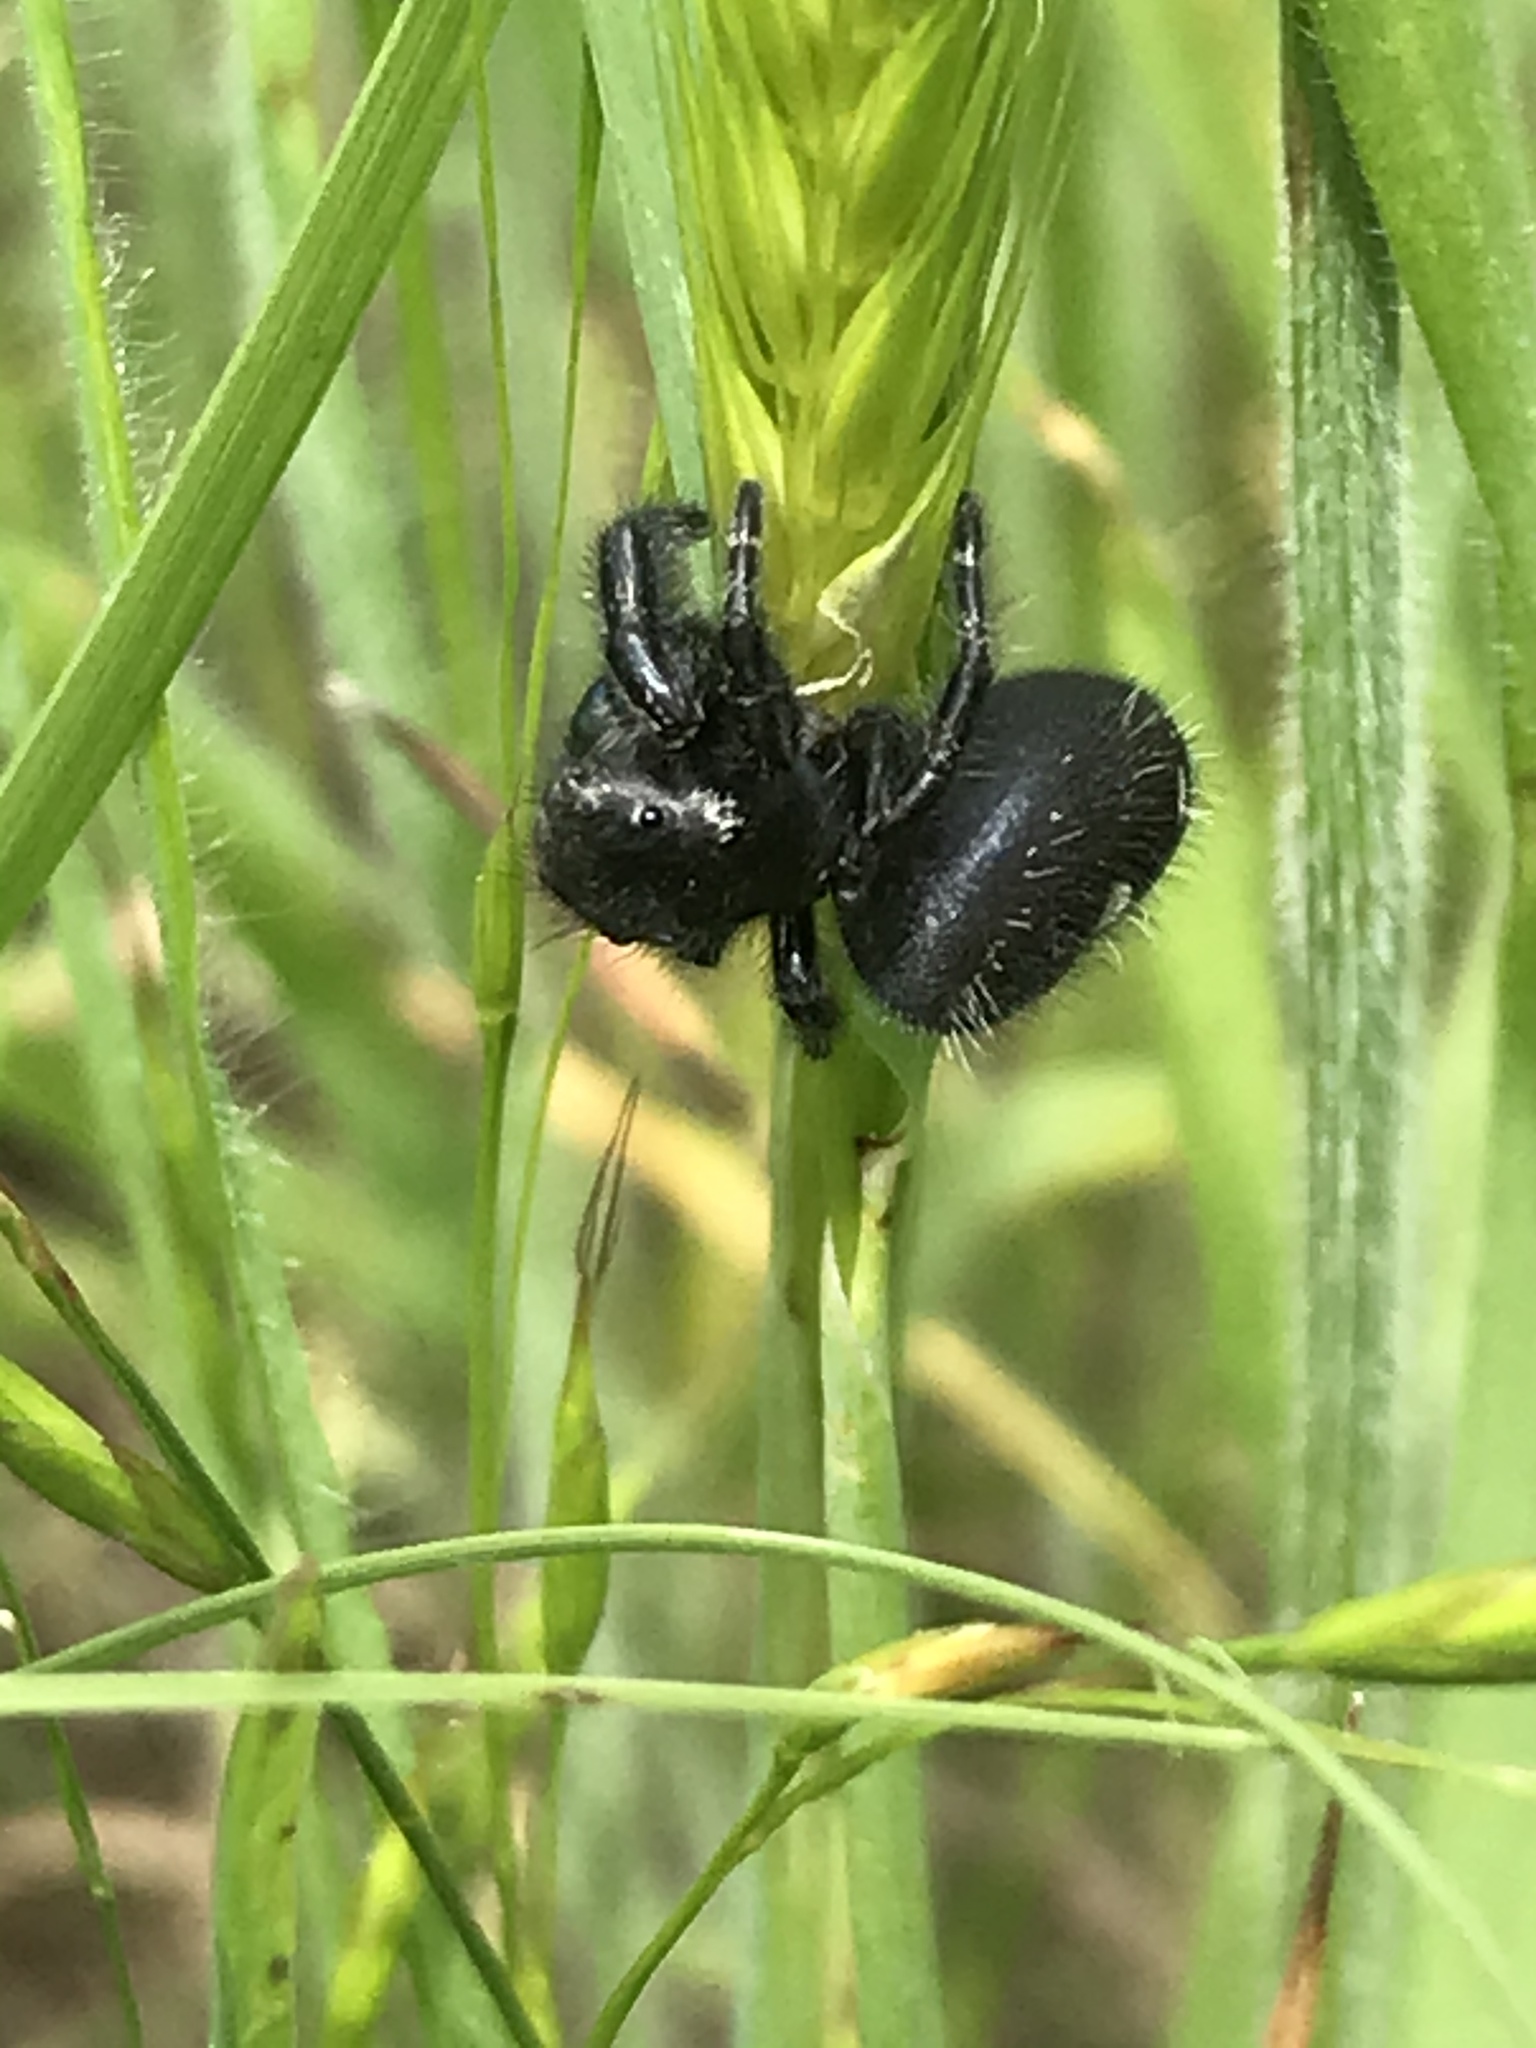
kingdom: Animalia
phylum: Arthropoda
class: Arachnida
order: Araneae
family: Salticidae
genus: Phidippus
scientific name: Phidippus audax
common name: Bold jumper
